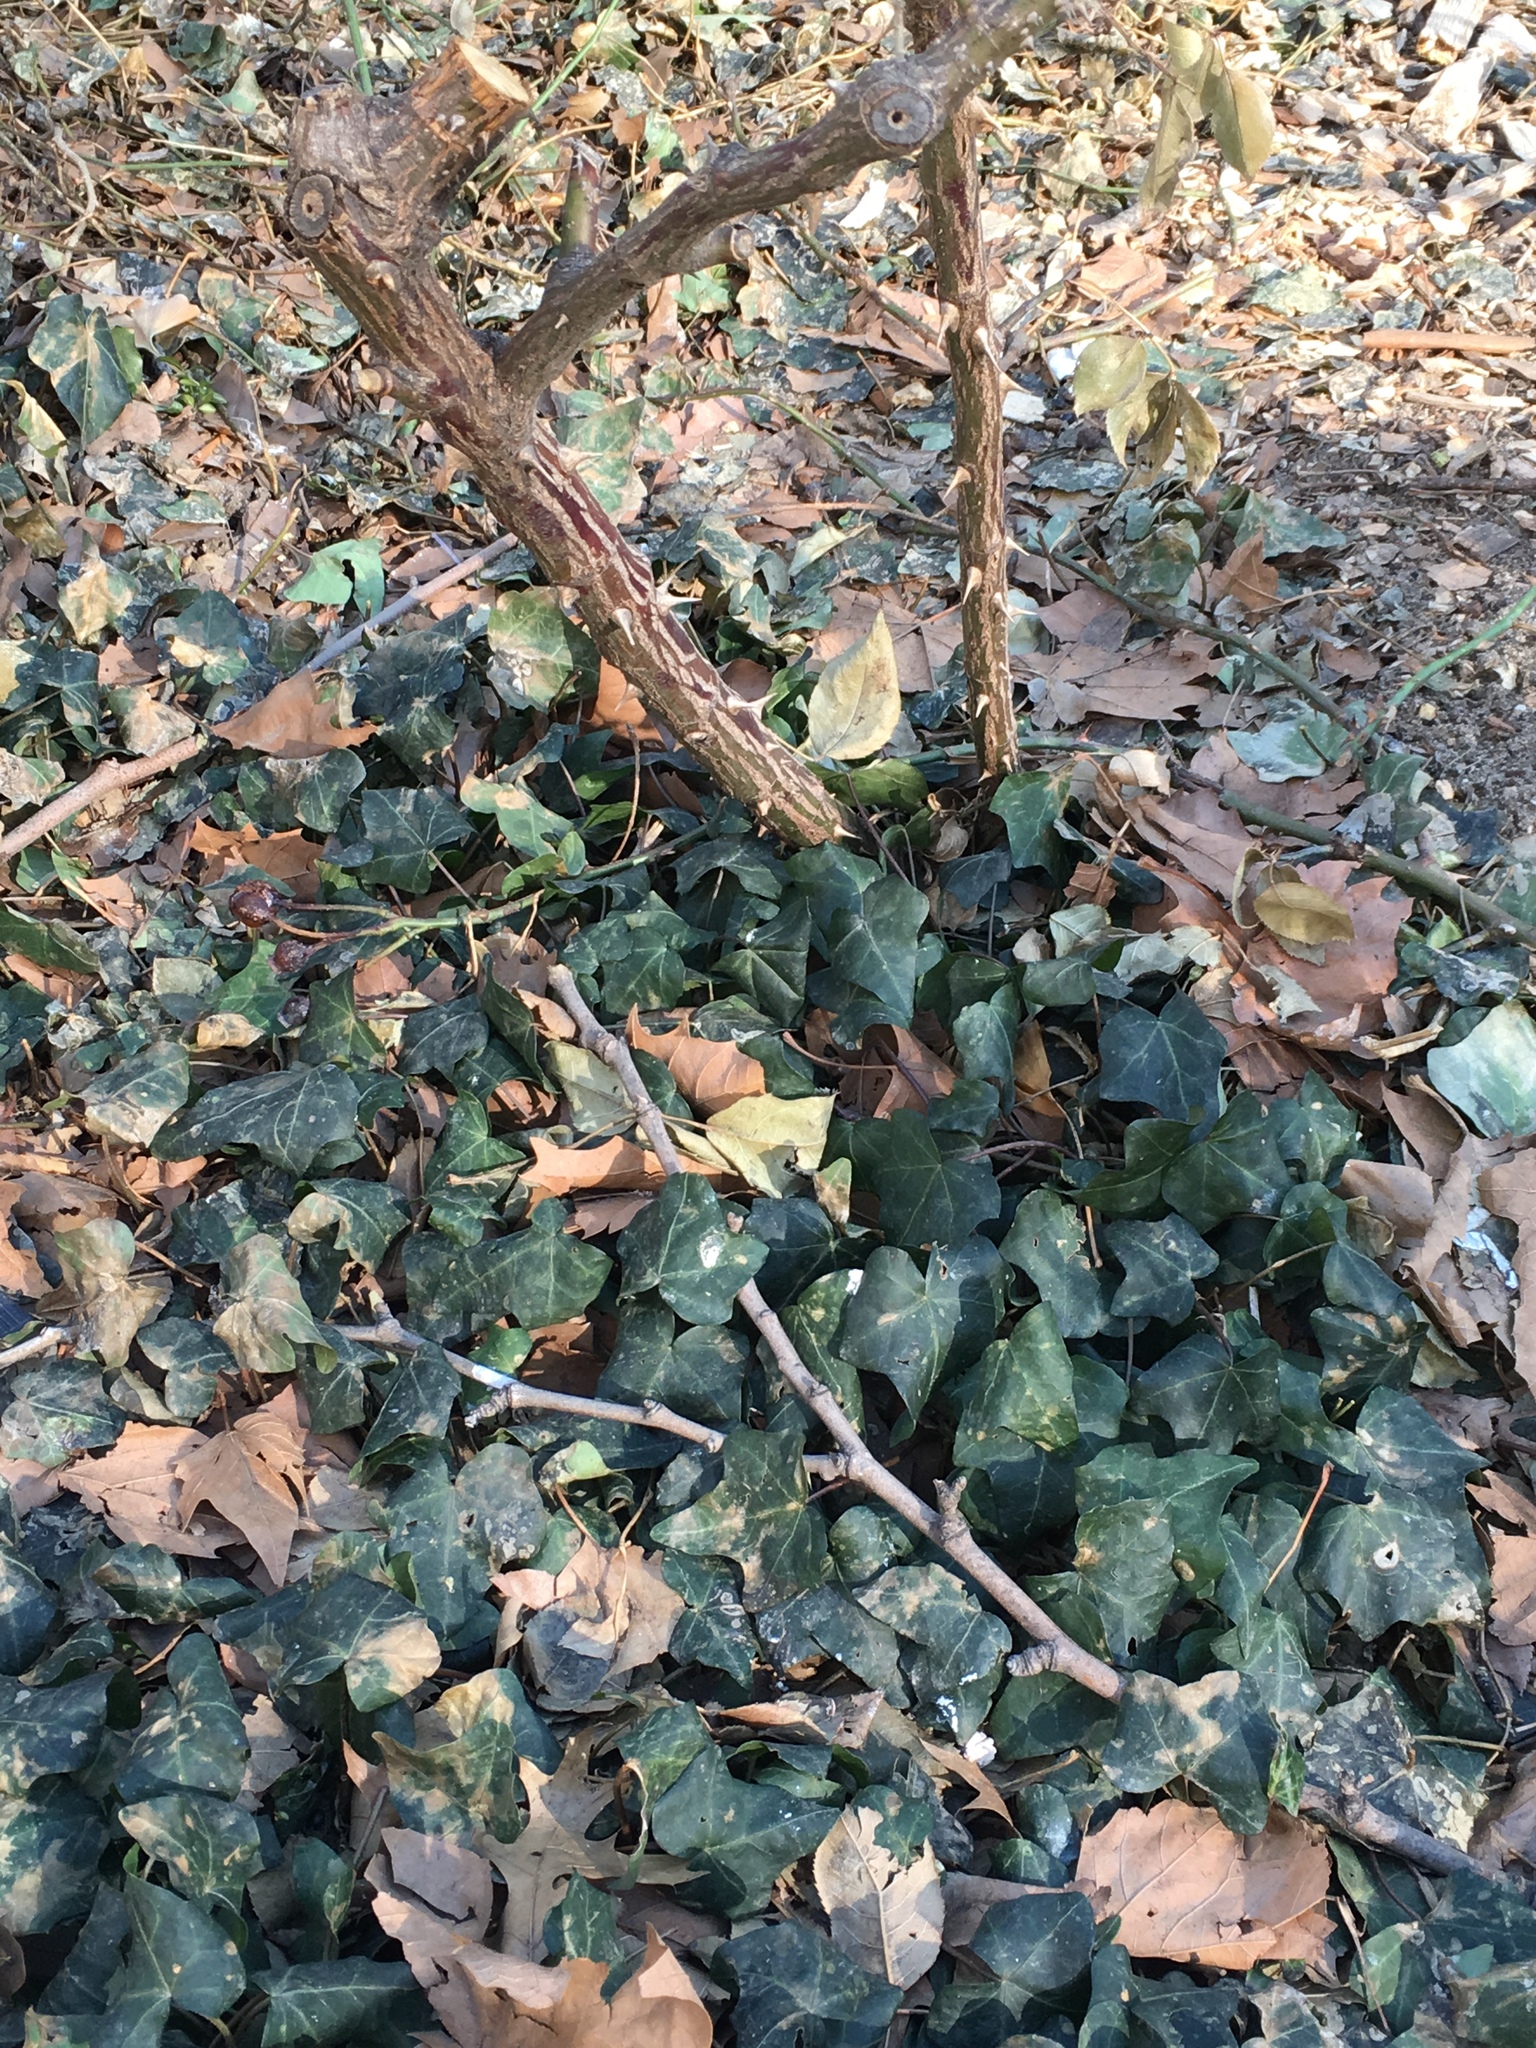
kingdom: Plantae
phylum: Tracheophyta
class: Magnoliopsida
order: Apiales
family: Araliaceae
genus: Hedera
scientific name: Hedera helix
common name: Ivy
